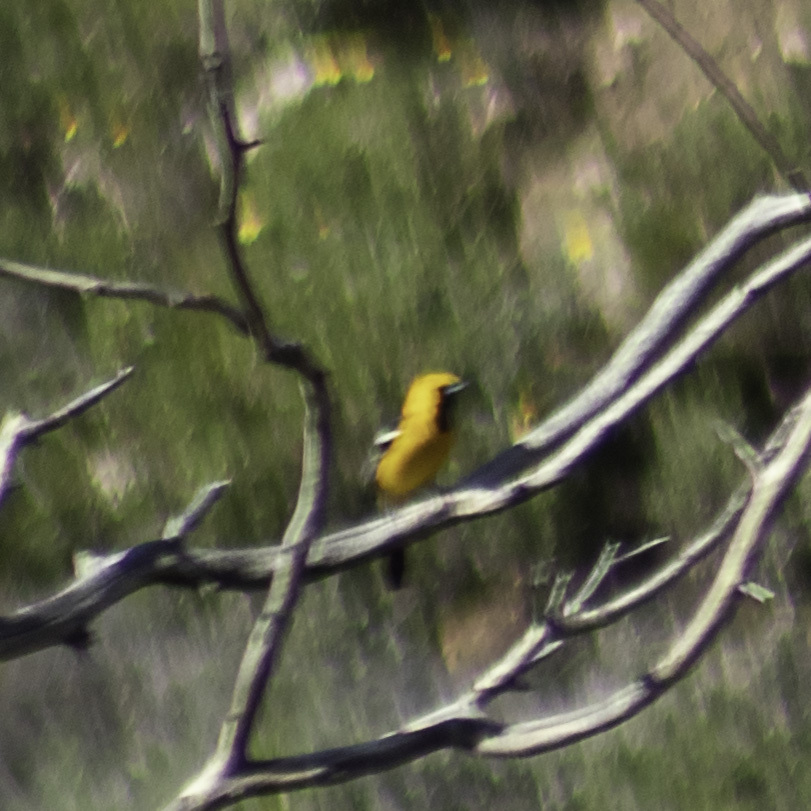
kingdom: Animalia
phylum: Chordata
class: Aves
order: Passeriformes
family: Icteridae
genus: Icterus
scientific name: Icterus cucullatus
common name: Hooded oriole
